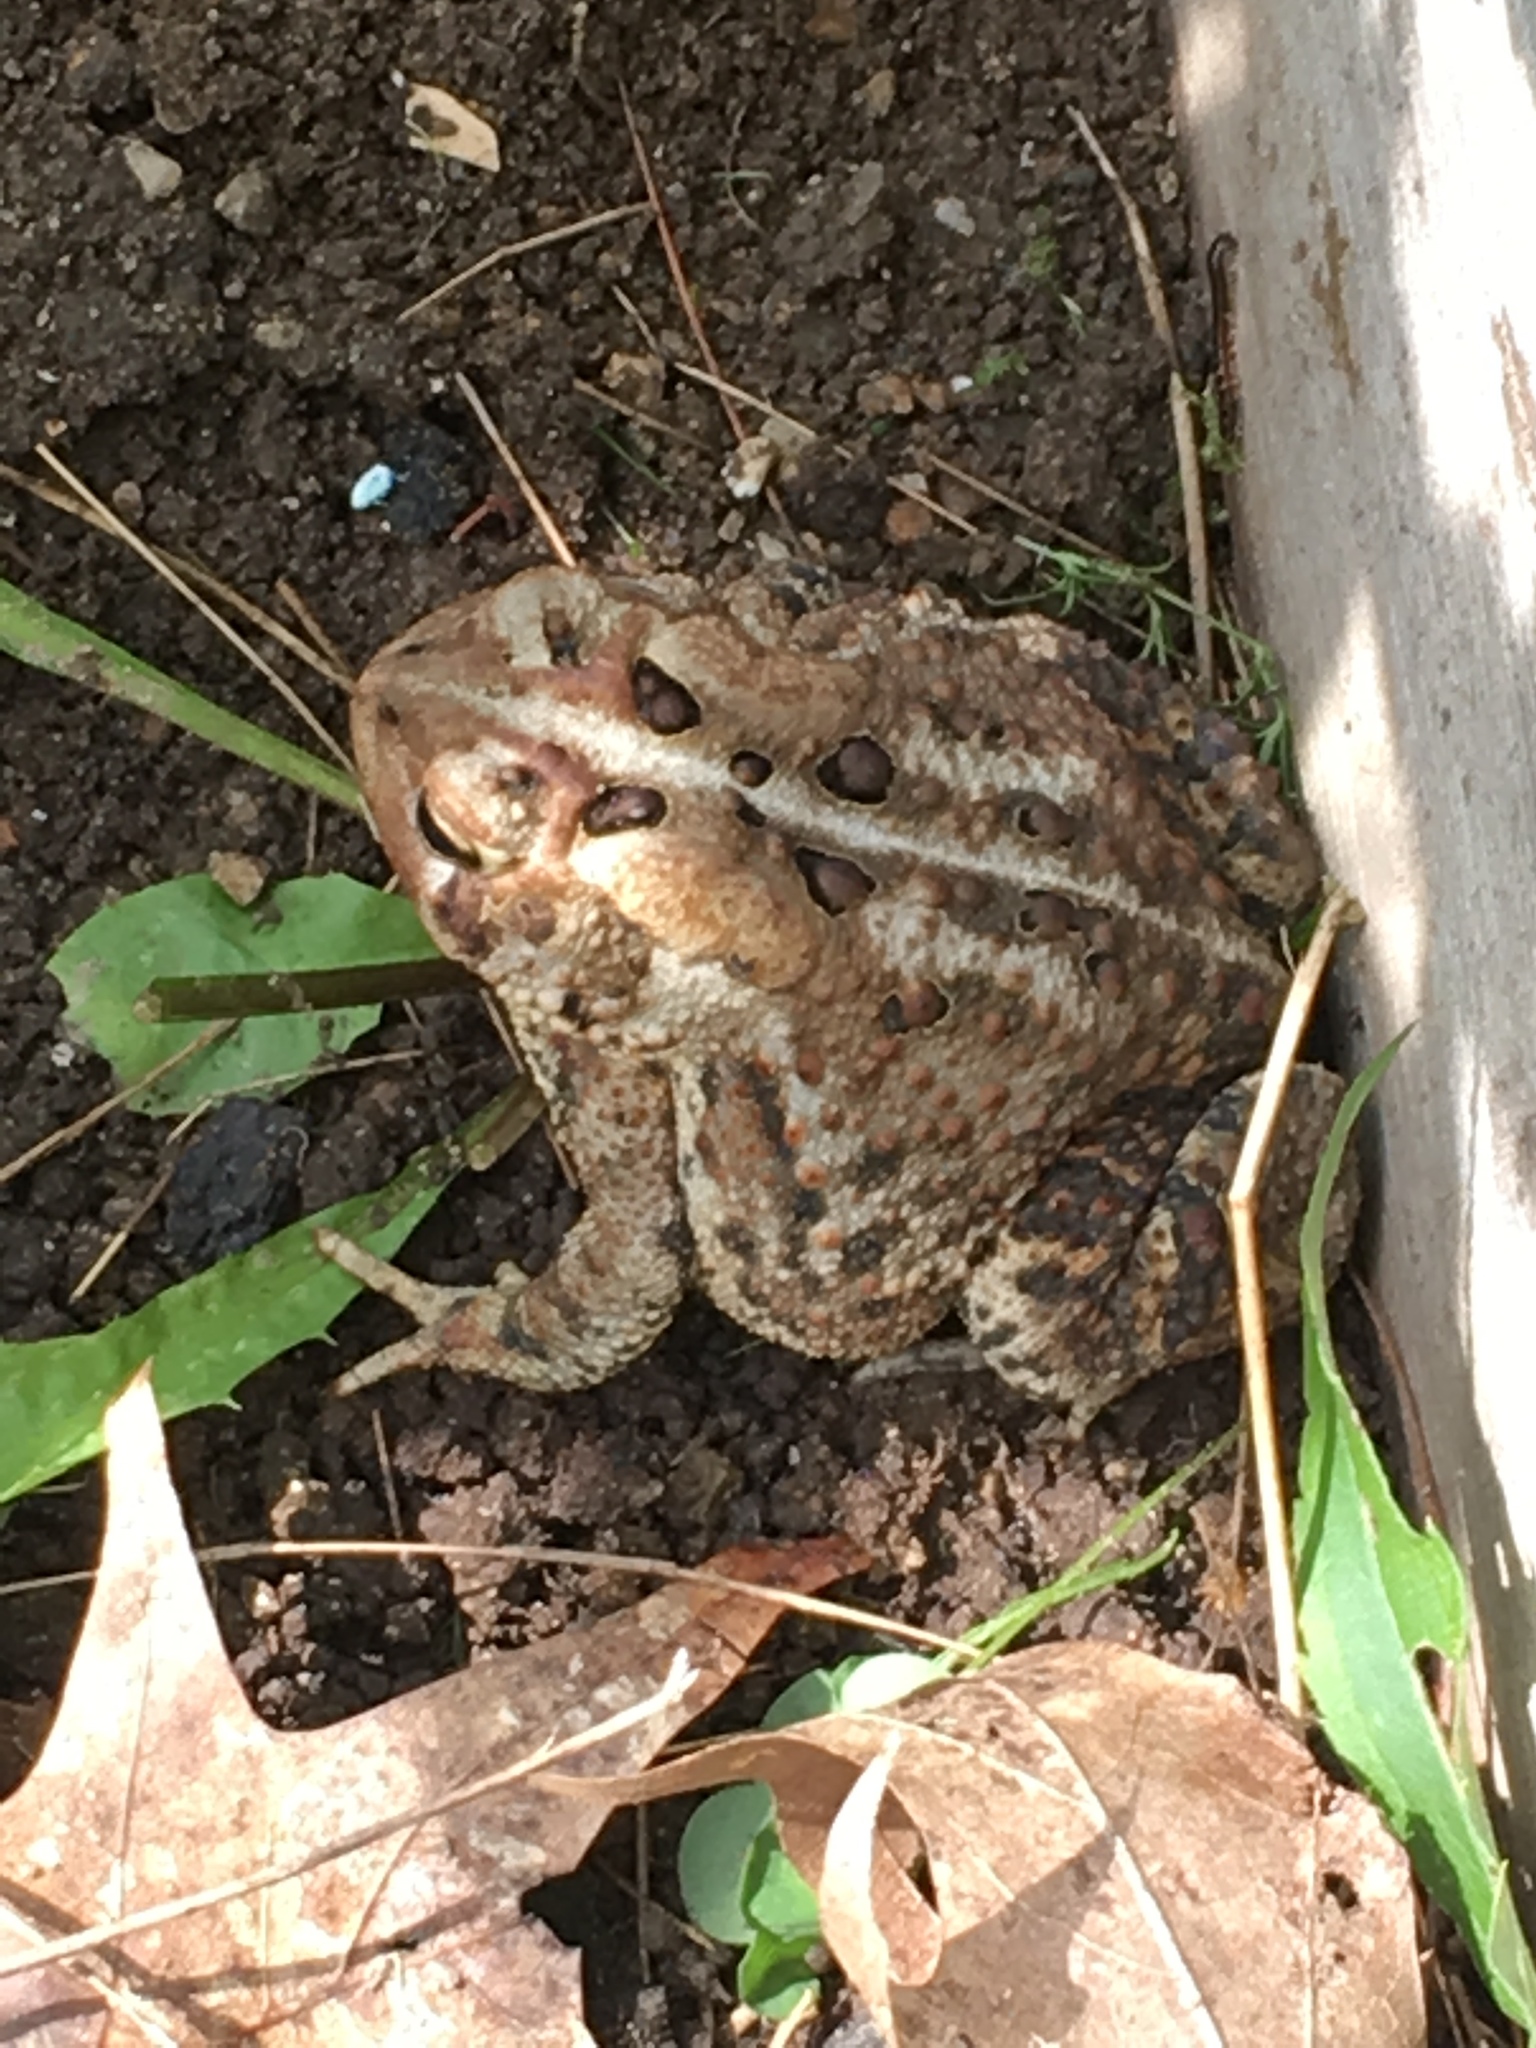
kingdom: Animalia
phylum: Chordata
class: Amphibia
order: Anura
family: Bufonidae
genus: Anaxyrus
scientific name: Anaxyrus americanus
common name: American toad
